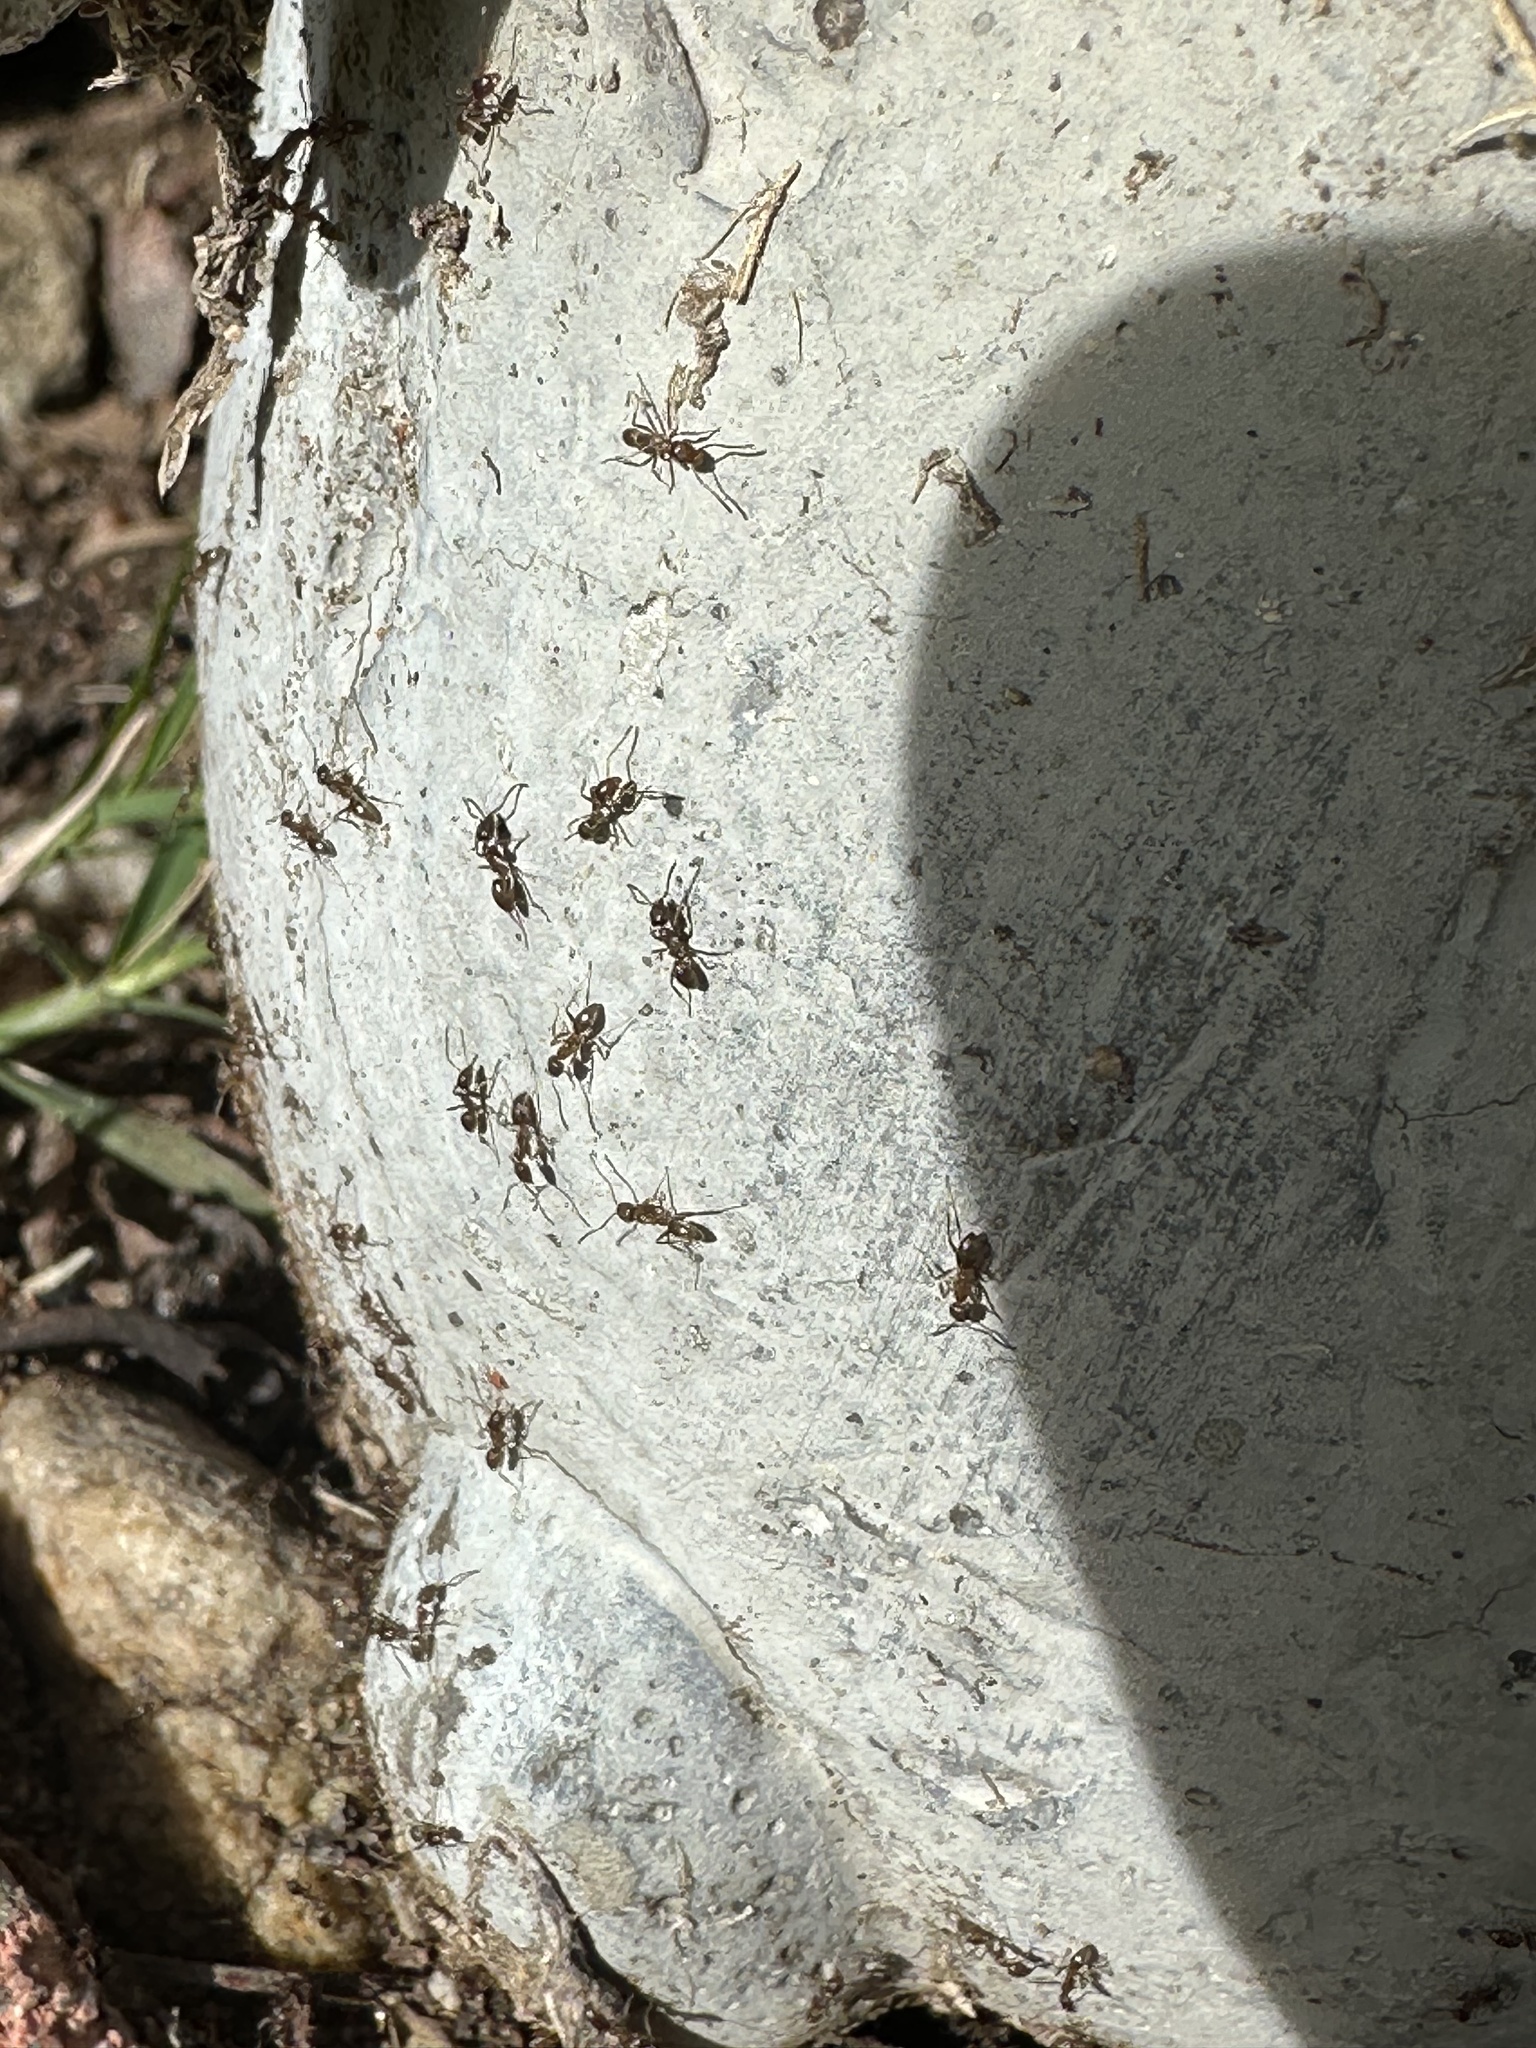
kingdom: Animalia
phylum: Arthropoda
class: Insecta
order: Hymenoptera
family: Formicidae
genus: Linepithema
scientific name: Linepithema humile
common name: Argentine ant
